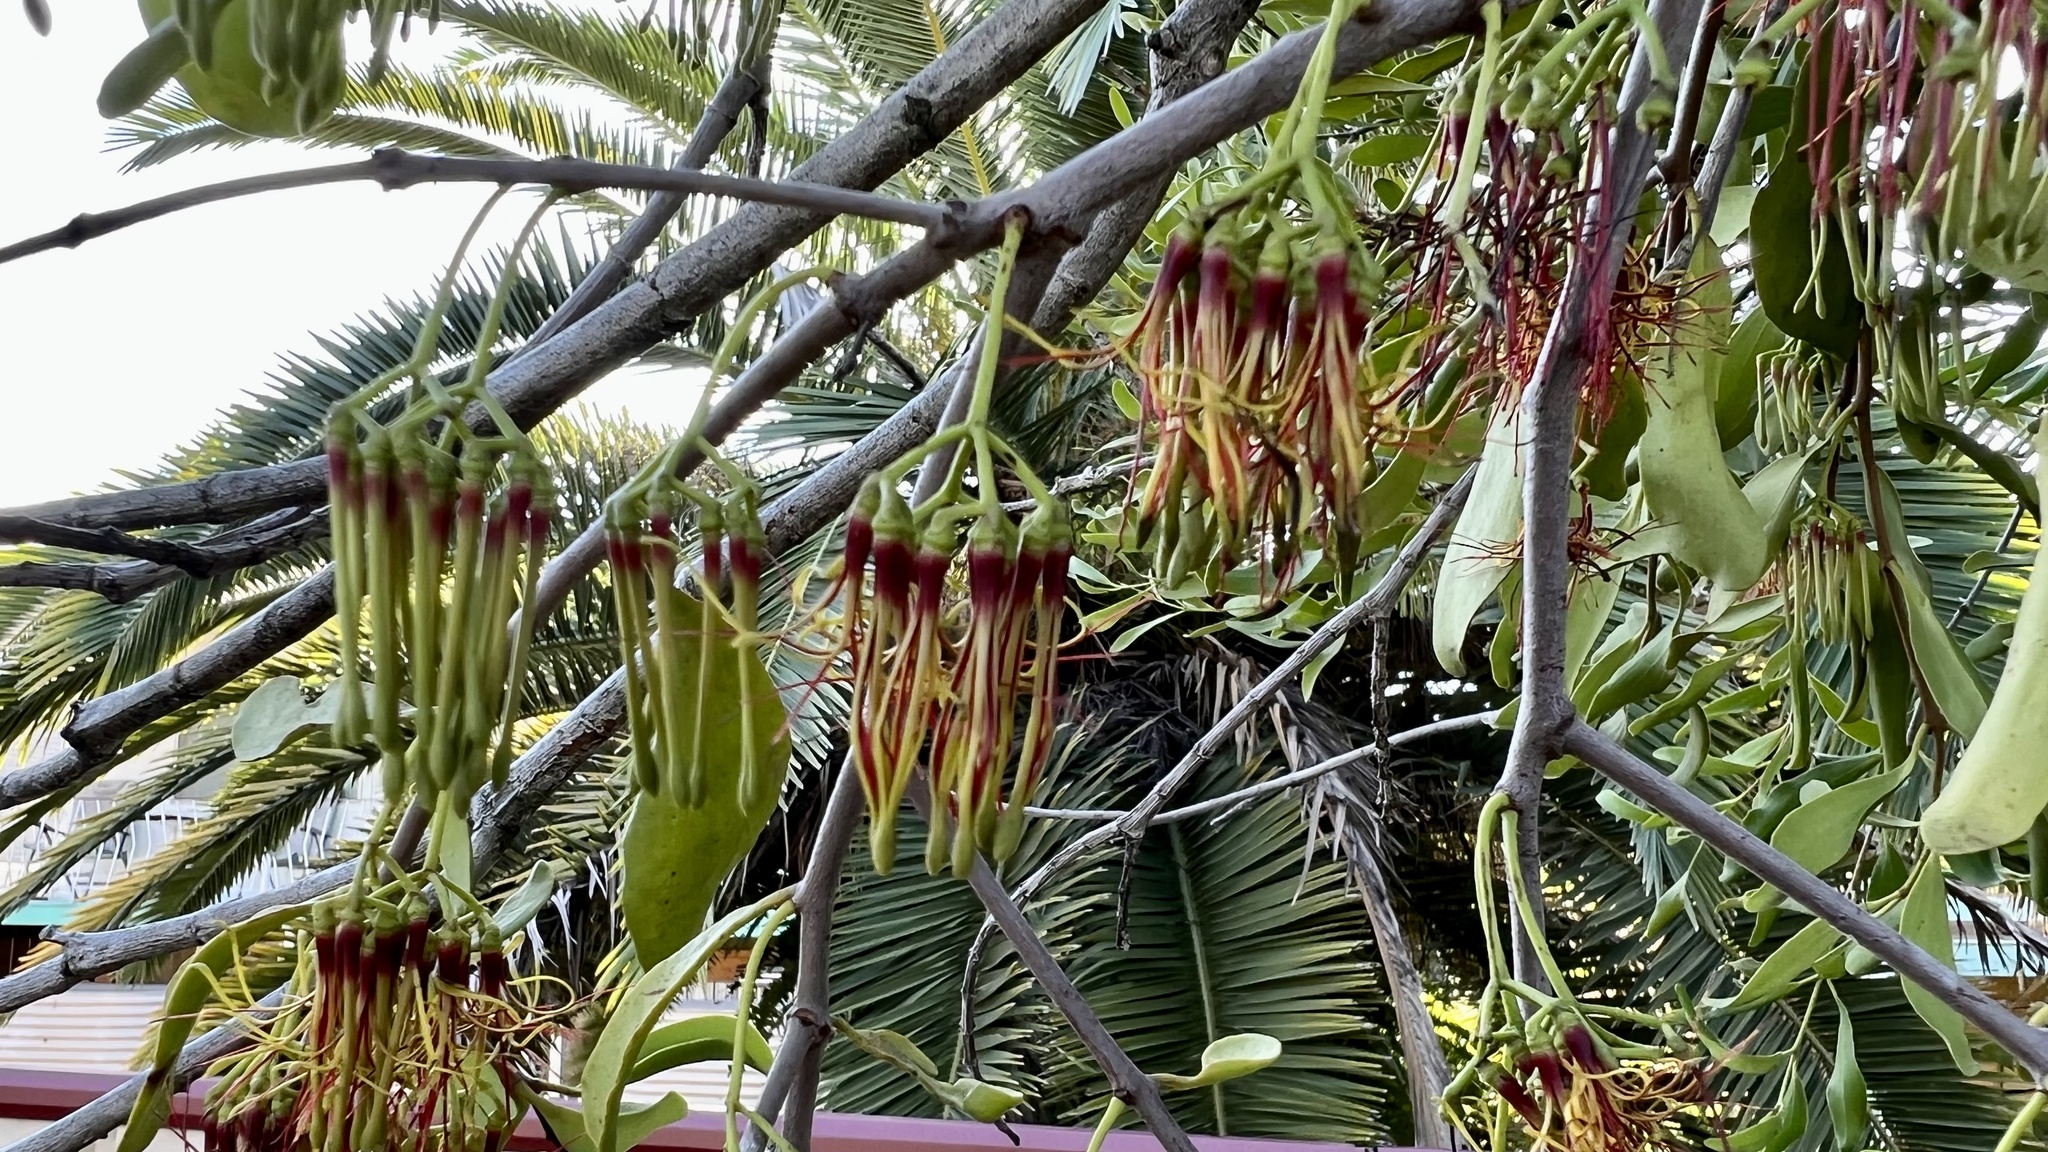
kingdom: Plantae
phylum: Tracheophyta
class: Magnoliopsida
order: Santalales
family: Loranthaceae
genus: Amyema
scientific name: Amyema congener
